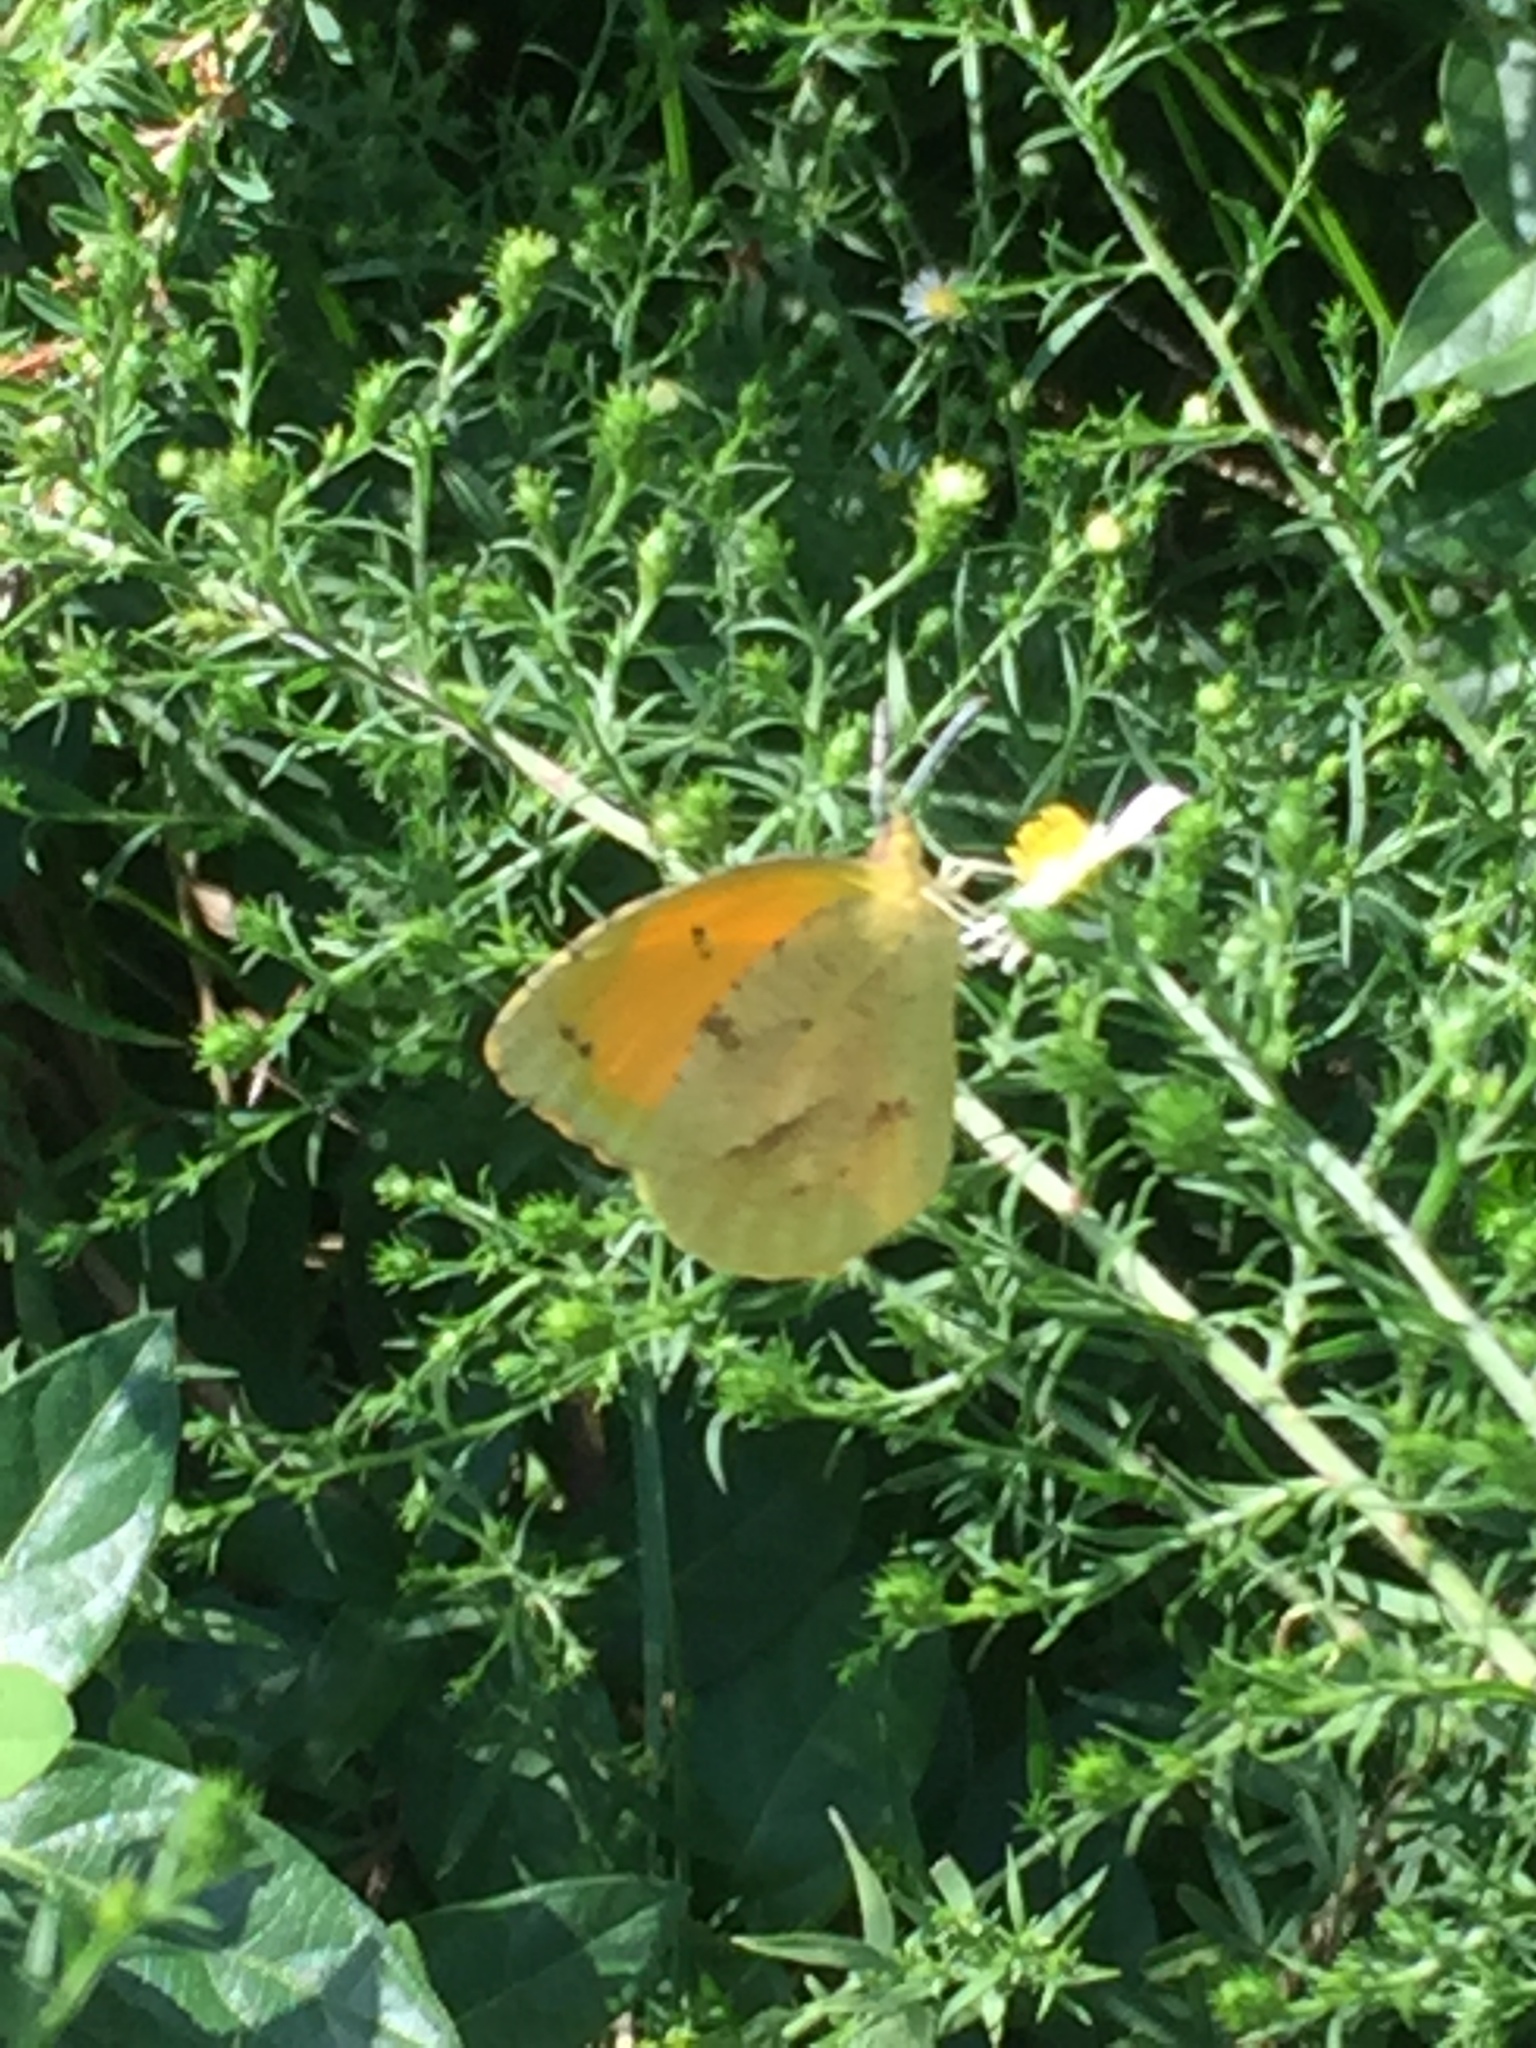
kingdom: Animalia
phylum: Arthropoda
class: Insecta
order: Lepidoptera
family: Pieridae
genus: Abaeis
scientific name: Abaeis nicippe
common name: Sleepy orange
